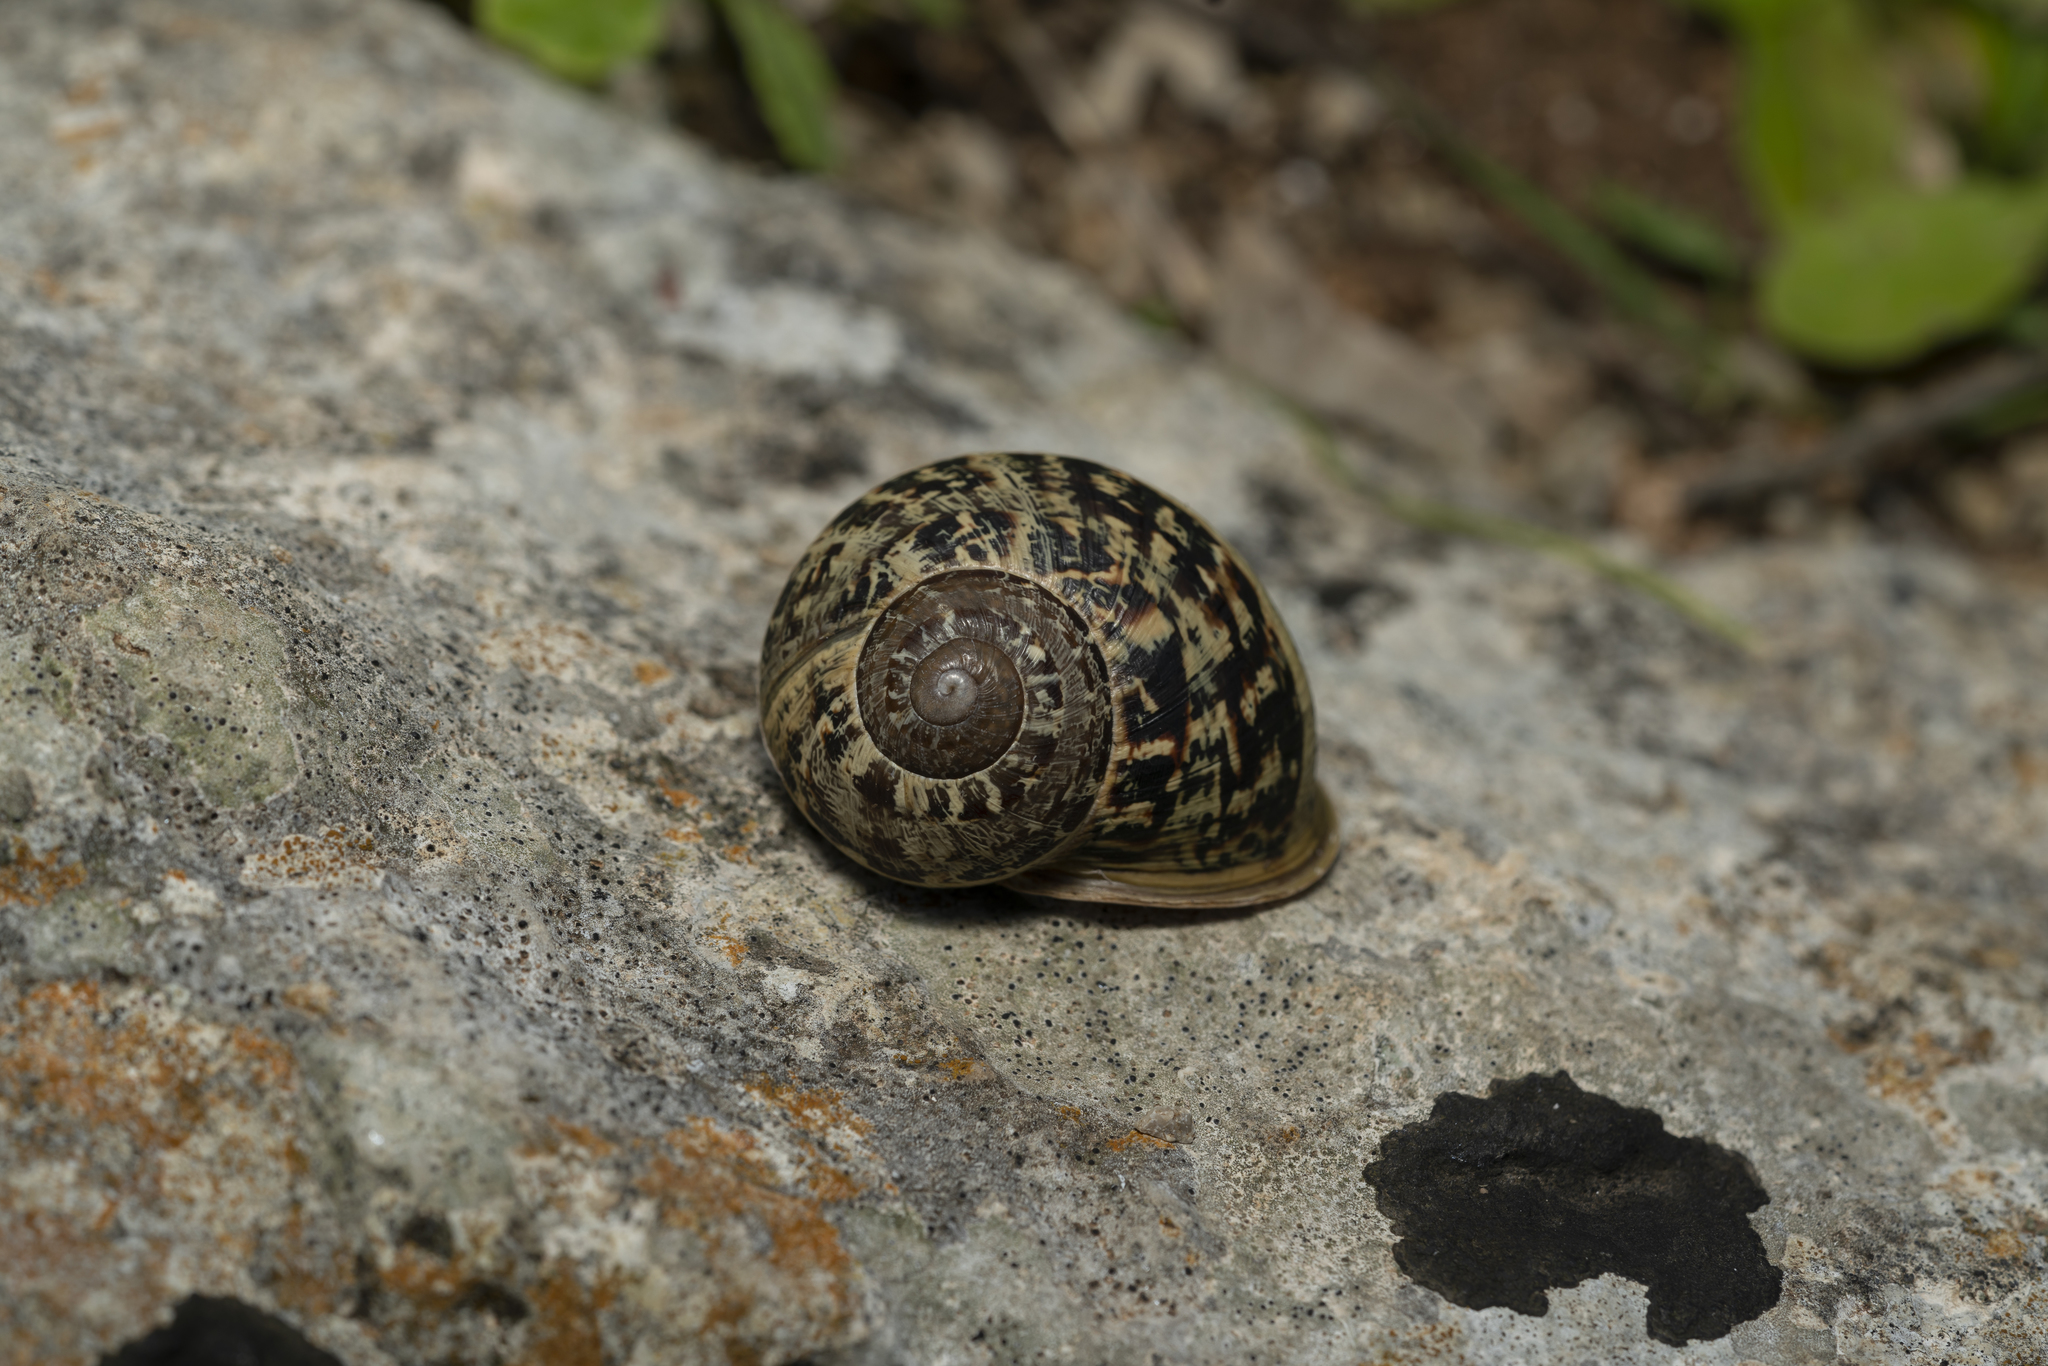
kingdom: Animalia
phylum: Mollusca
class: Gastropoda
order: Stylommatophora
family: Helicidae
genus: Cornu
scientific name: Cornu aspersum
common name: Brown garden snail
